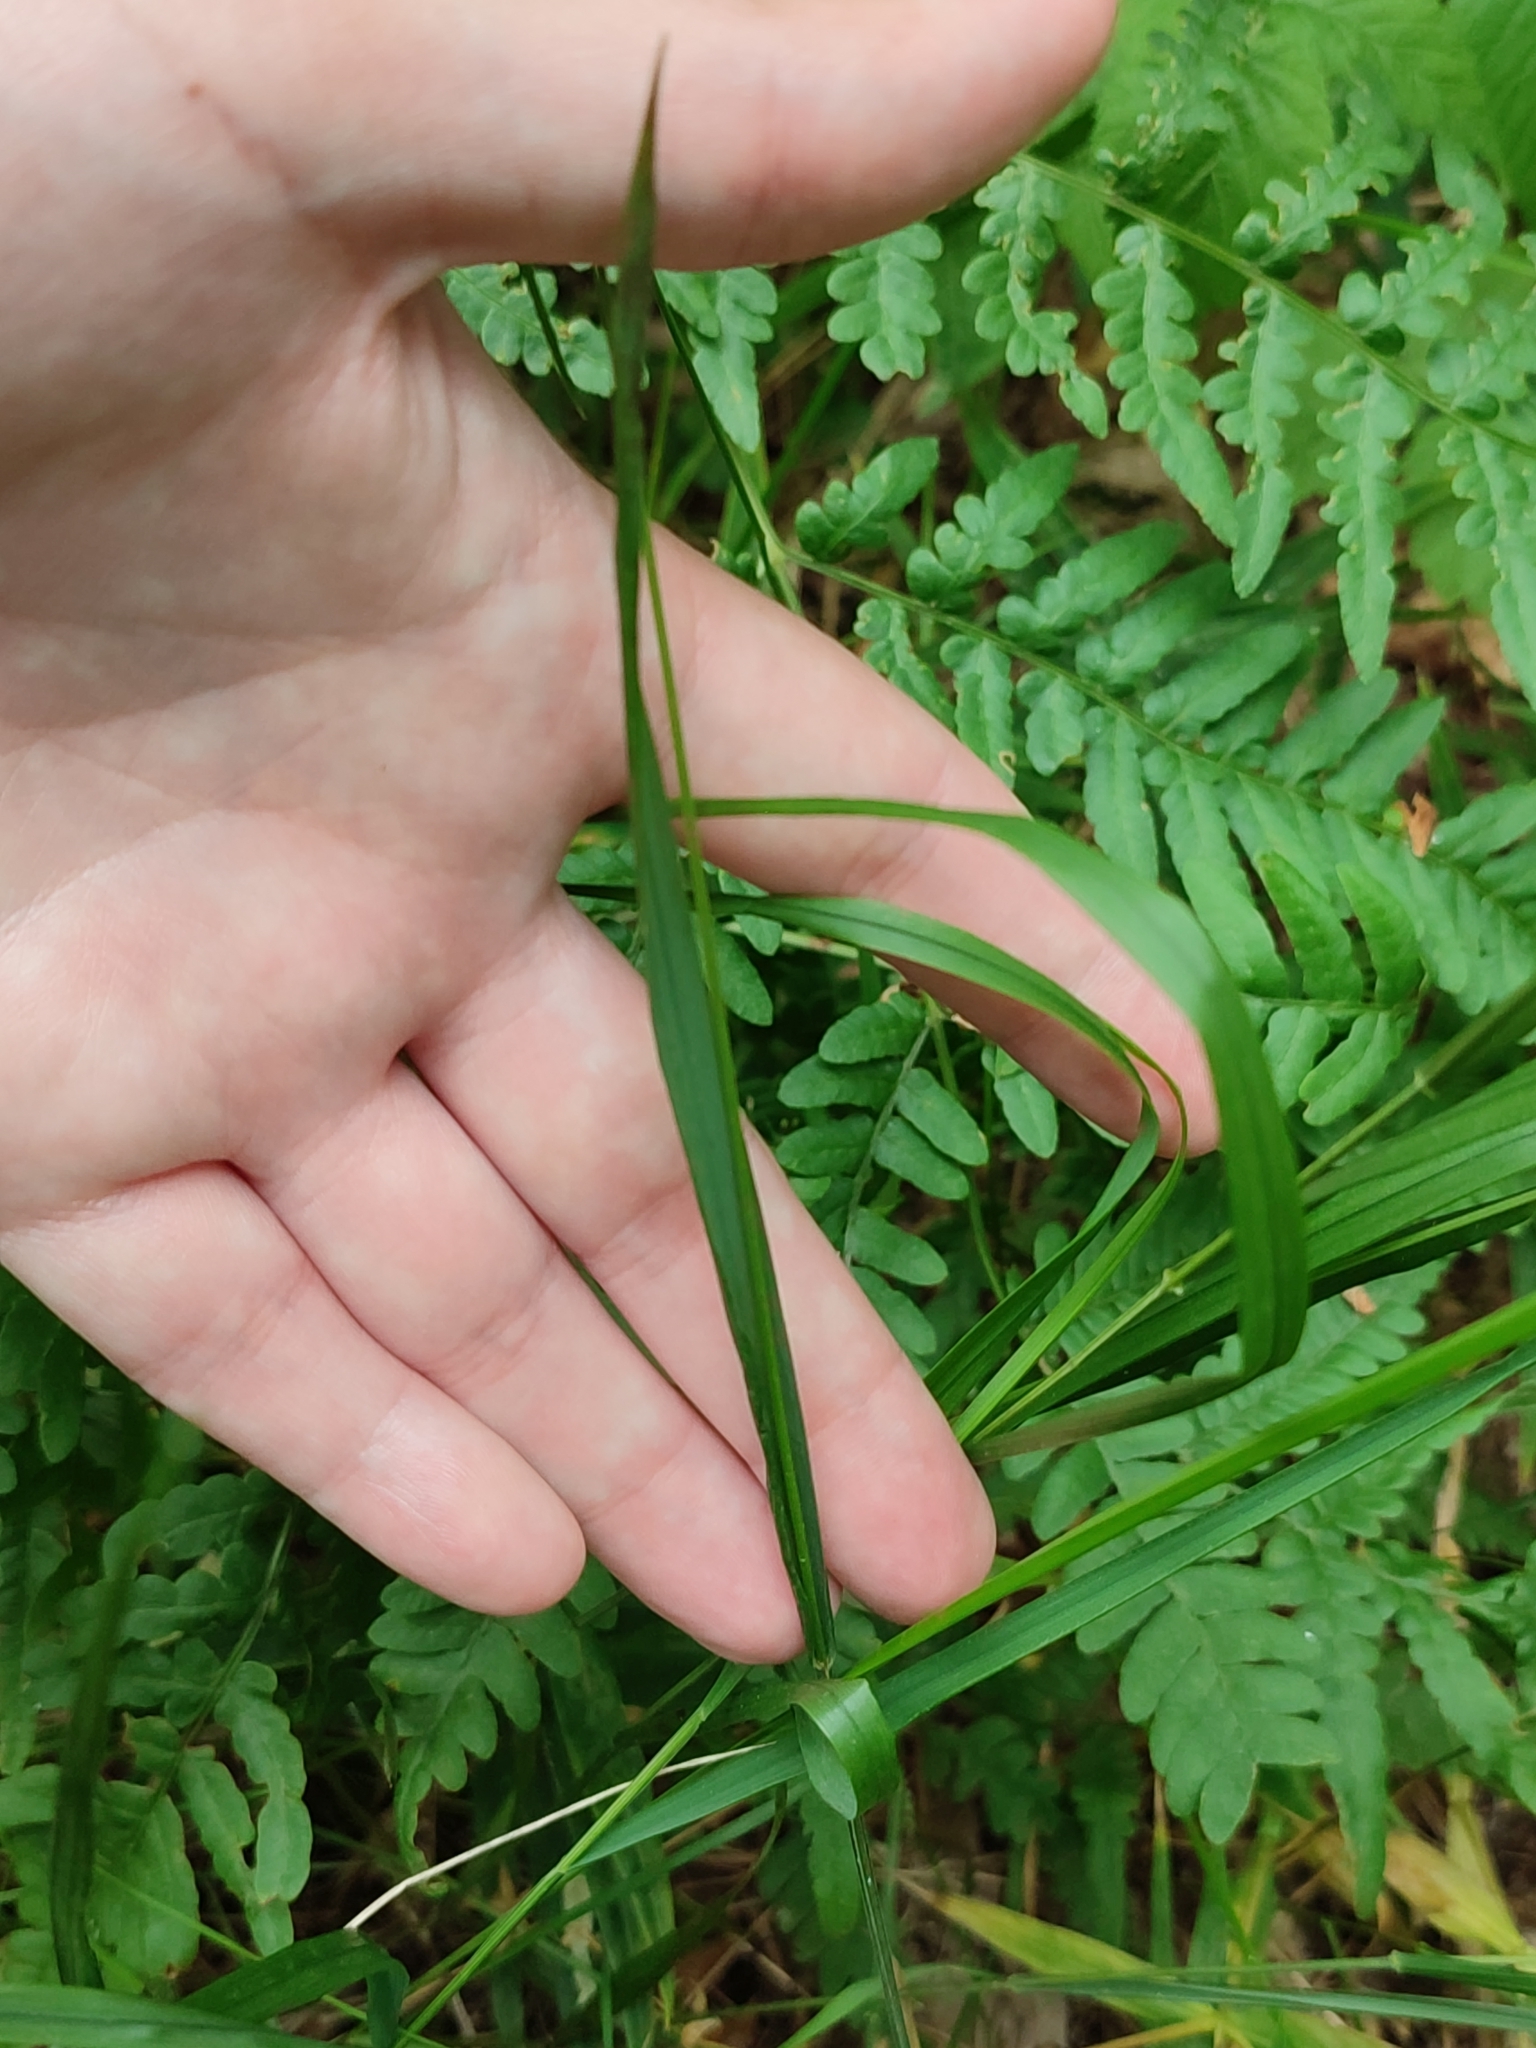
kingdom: Plantae
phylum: Tracheophyta
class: Liliopsida
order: Poales
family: Poaceae
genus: Melica
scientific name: Melica nutans
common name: Mountain melick
